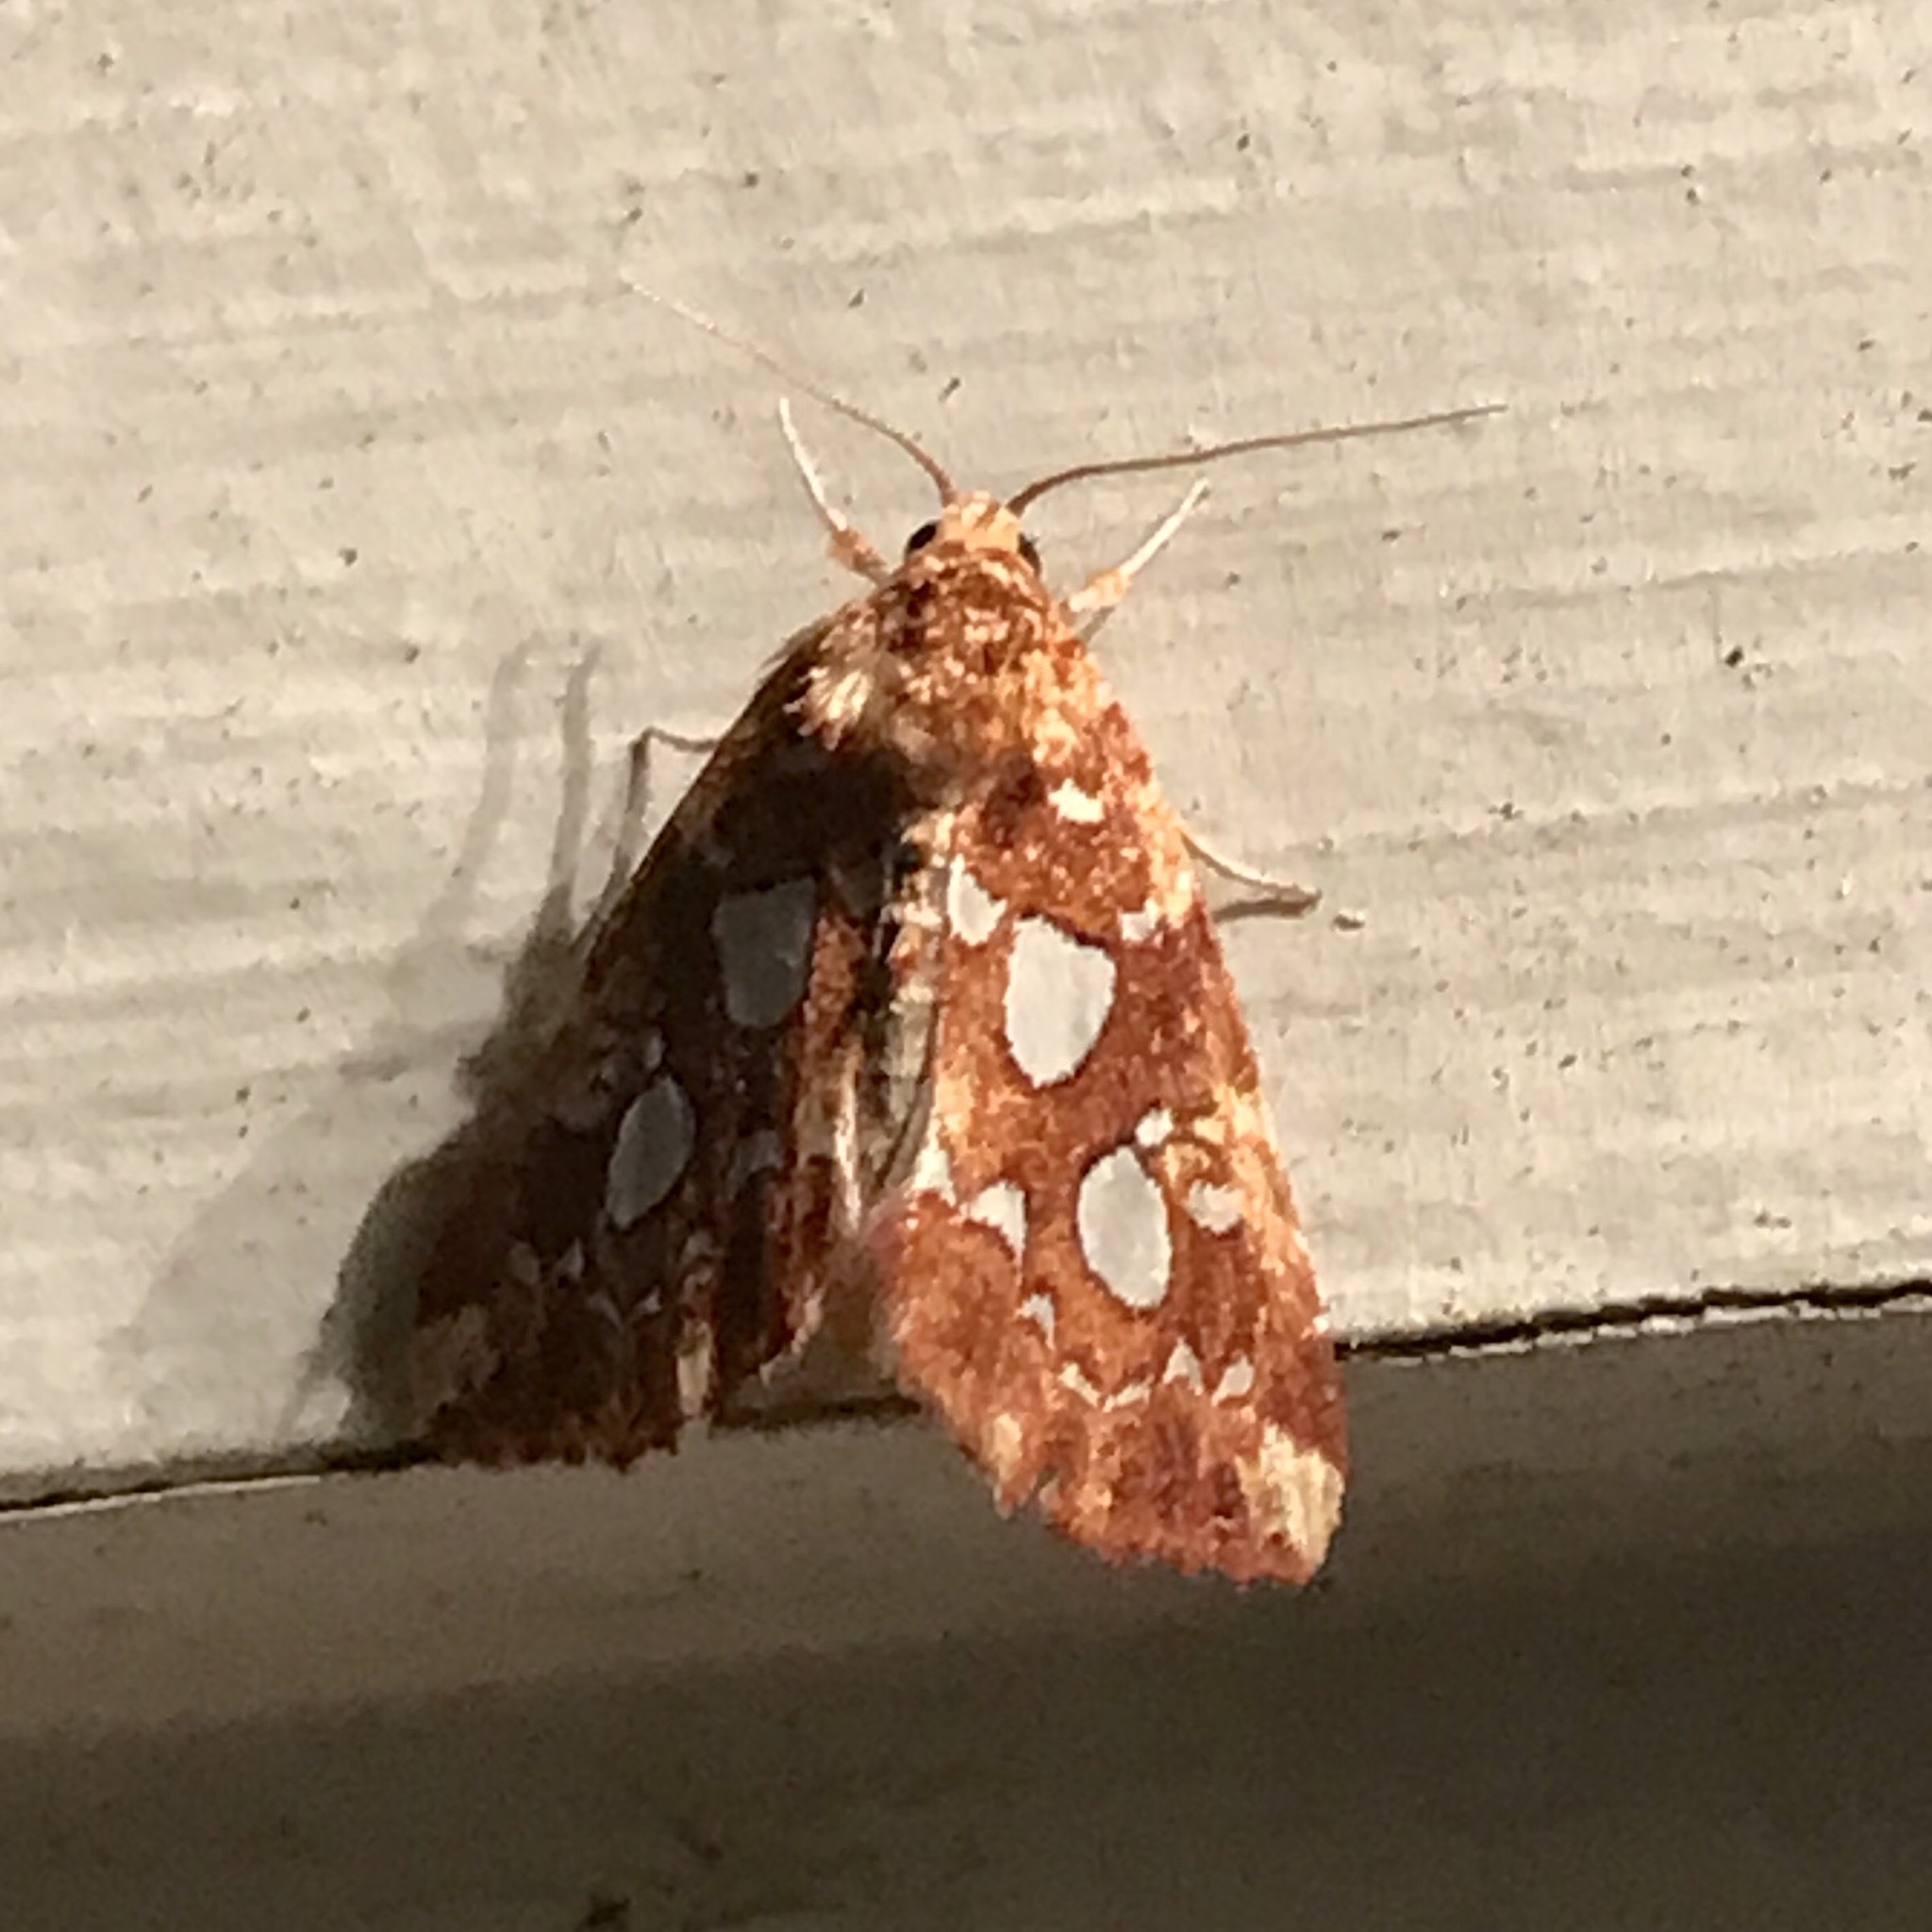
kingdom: Animalia
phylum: Arthropoda
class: Insecta
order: Lepidoptera
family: Noctuidae
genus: Callopistria
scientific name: Callopistria cordata
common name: Silver-spotted fern moth
